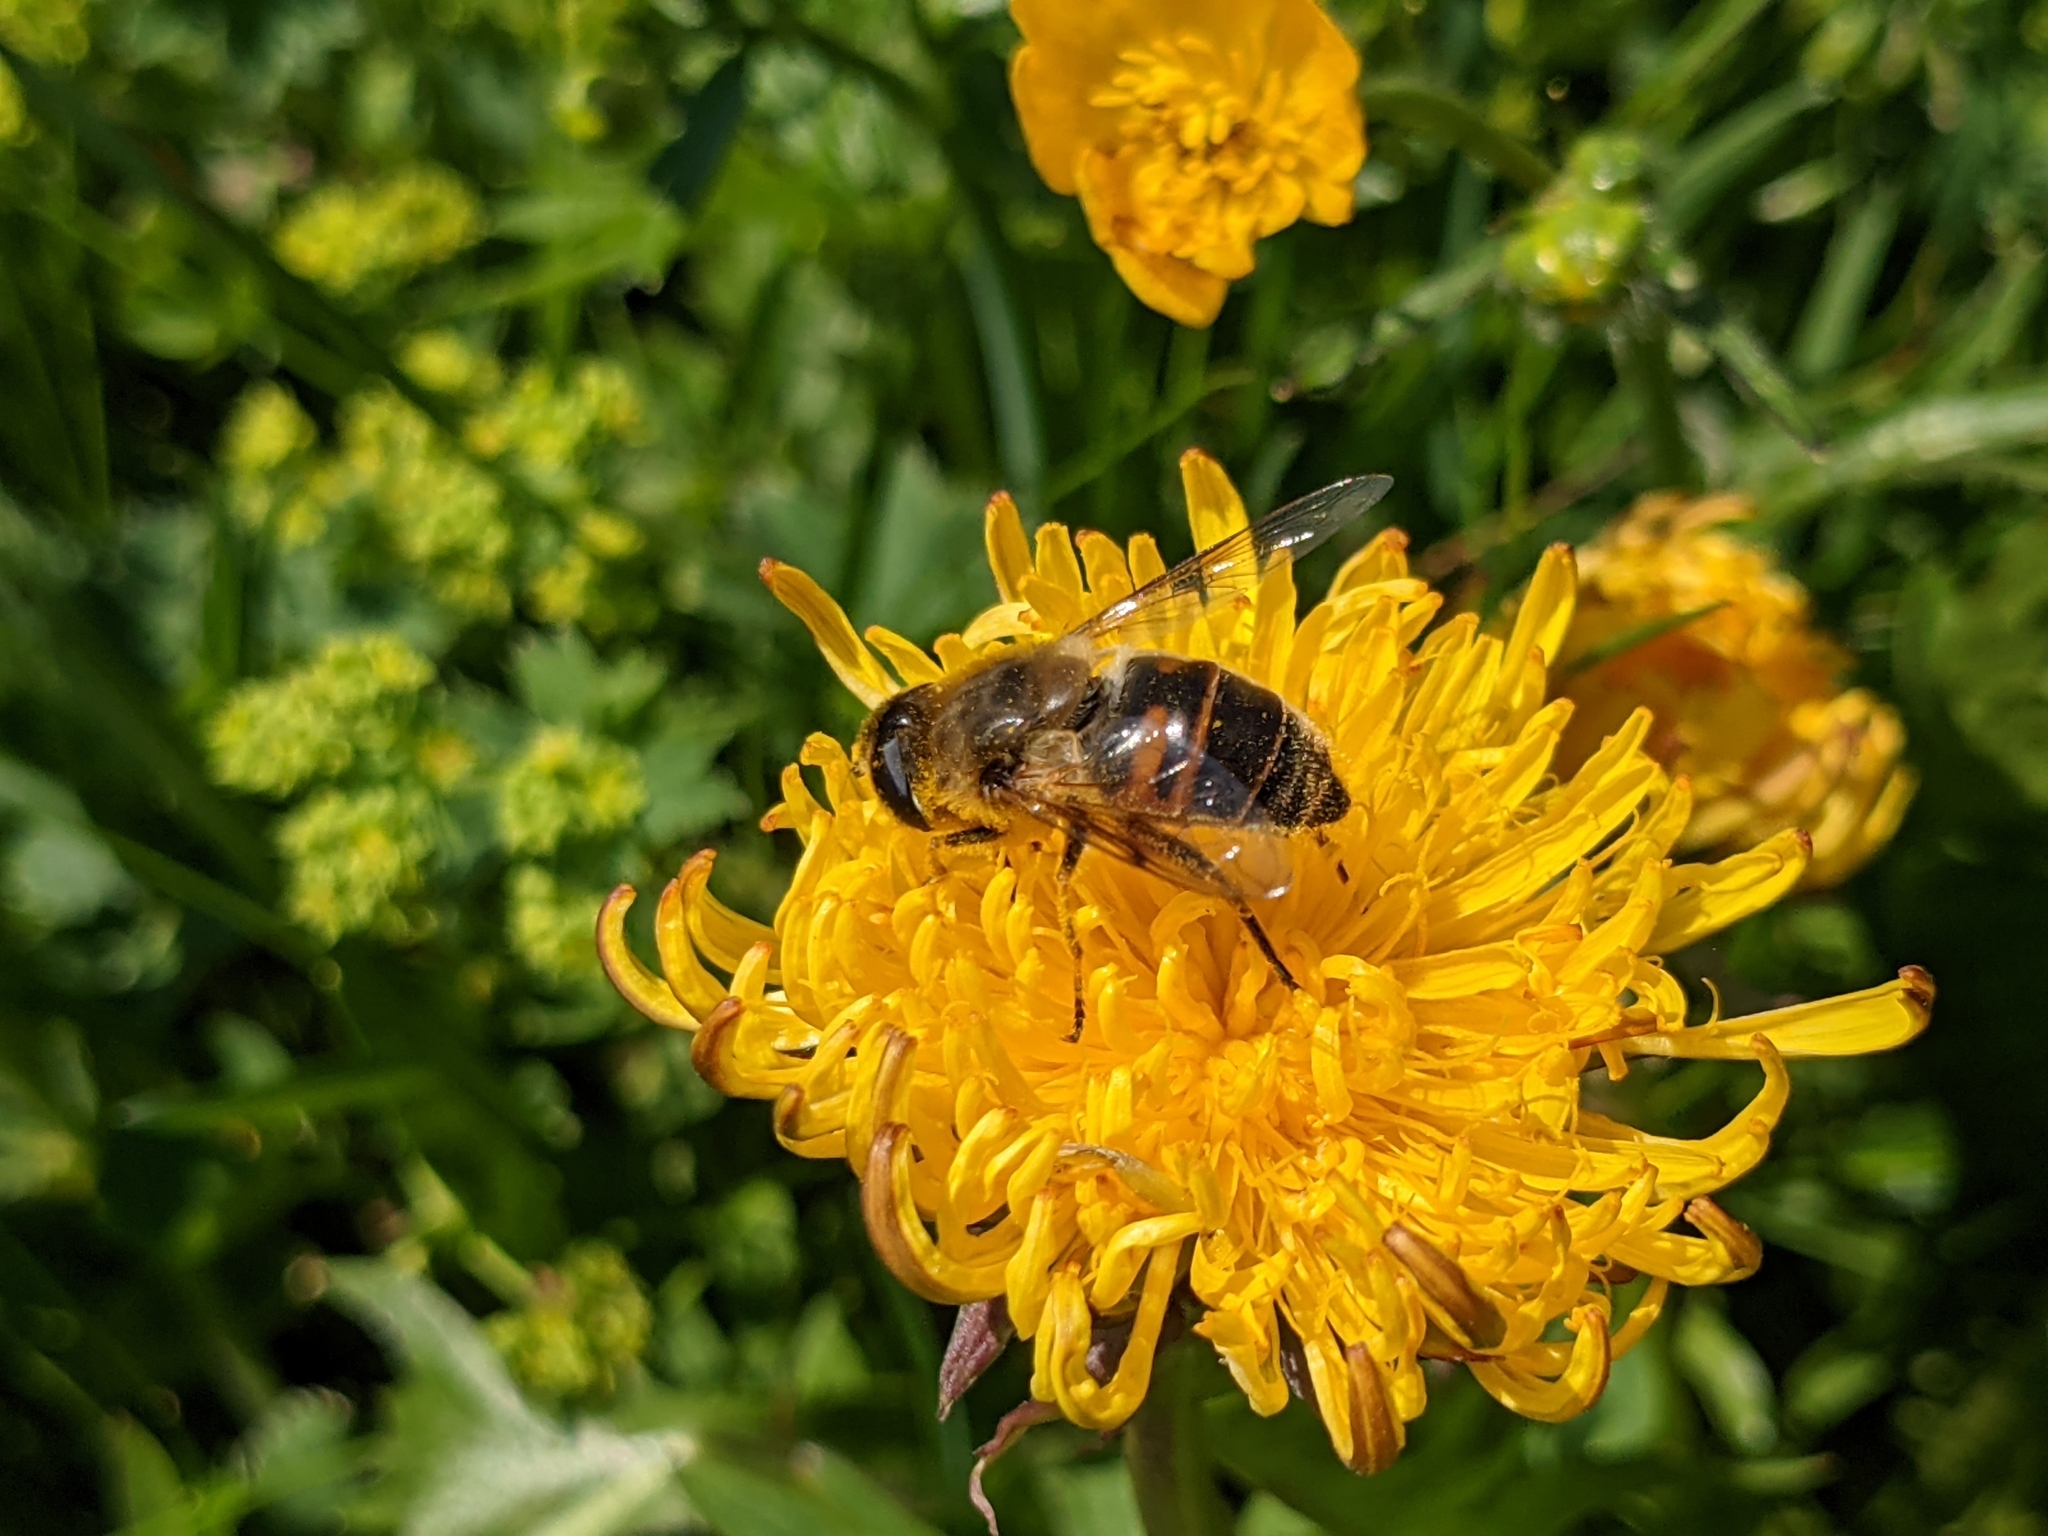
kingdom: Animalia
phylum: Arthropoda
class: Insecta
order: Diptera
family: Syrphidae
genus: Eristalis
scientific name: Eristalis tenax
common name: Drone fly
